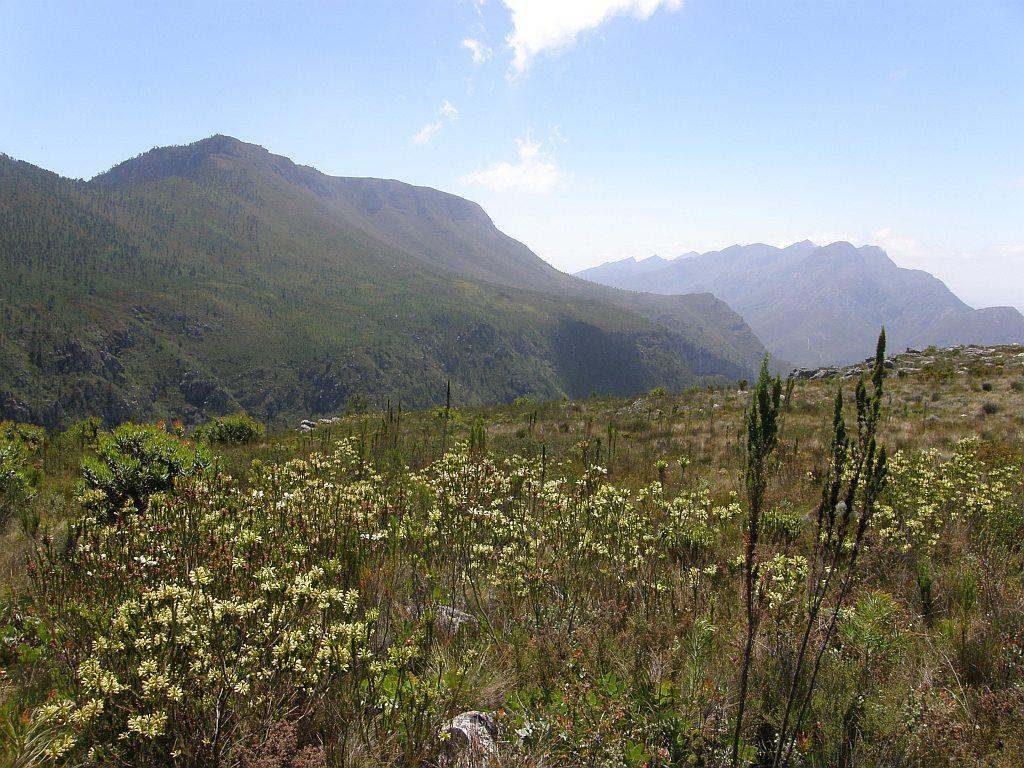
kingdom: Plantae
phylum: Tracheophyta
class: Magnoliopsida
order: Ericales
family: Ericaceae
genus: Erica
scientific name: Erica viscaria
